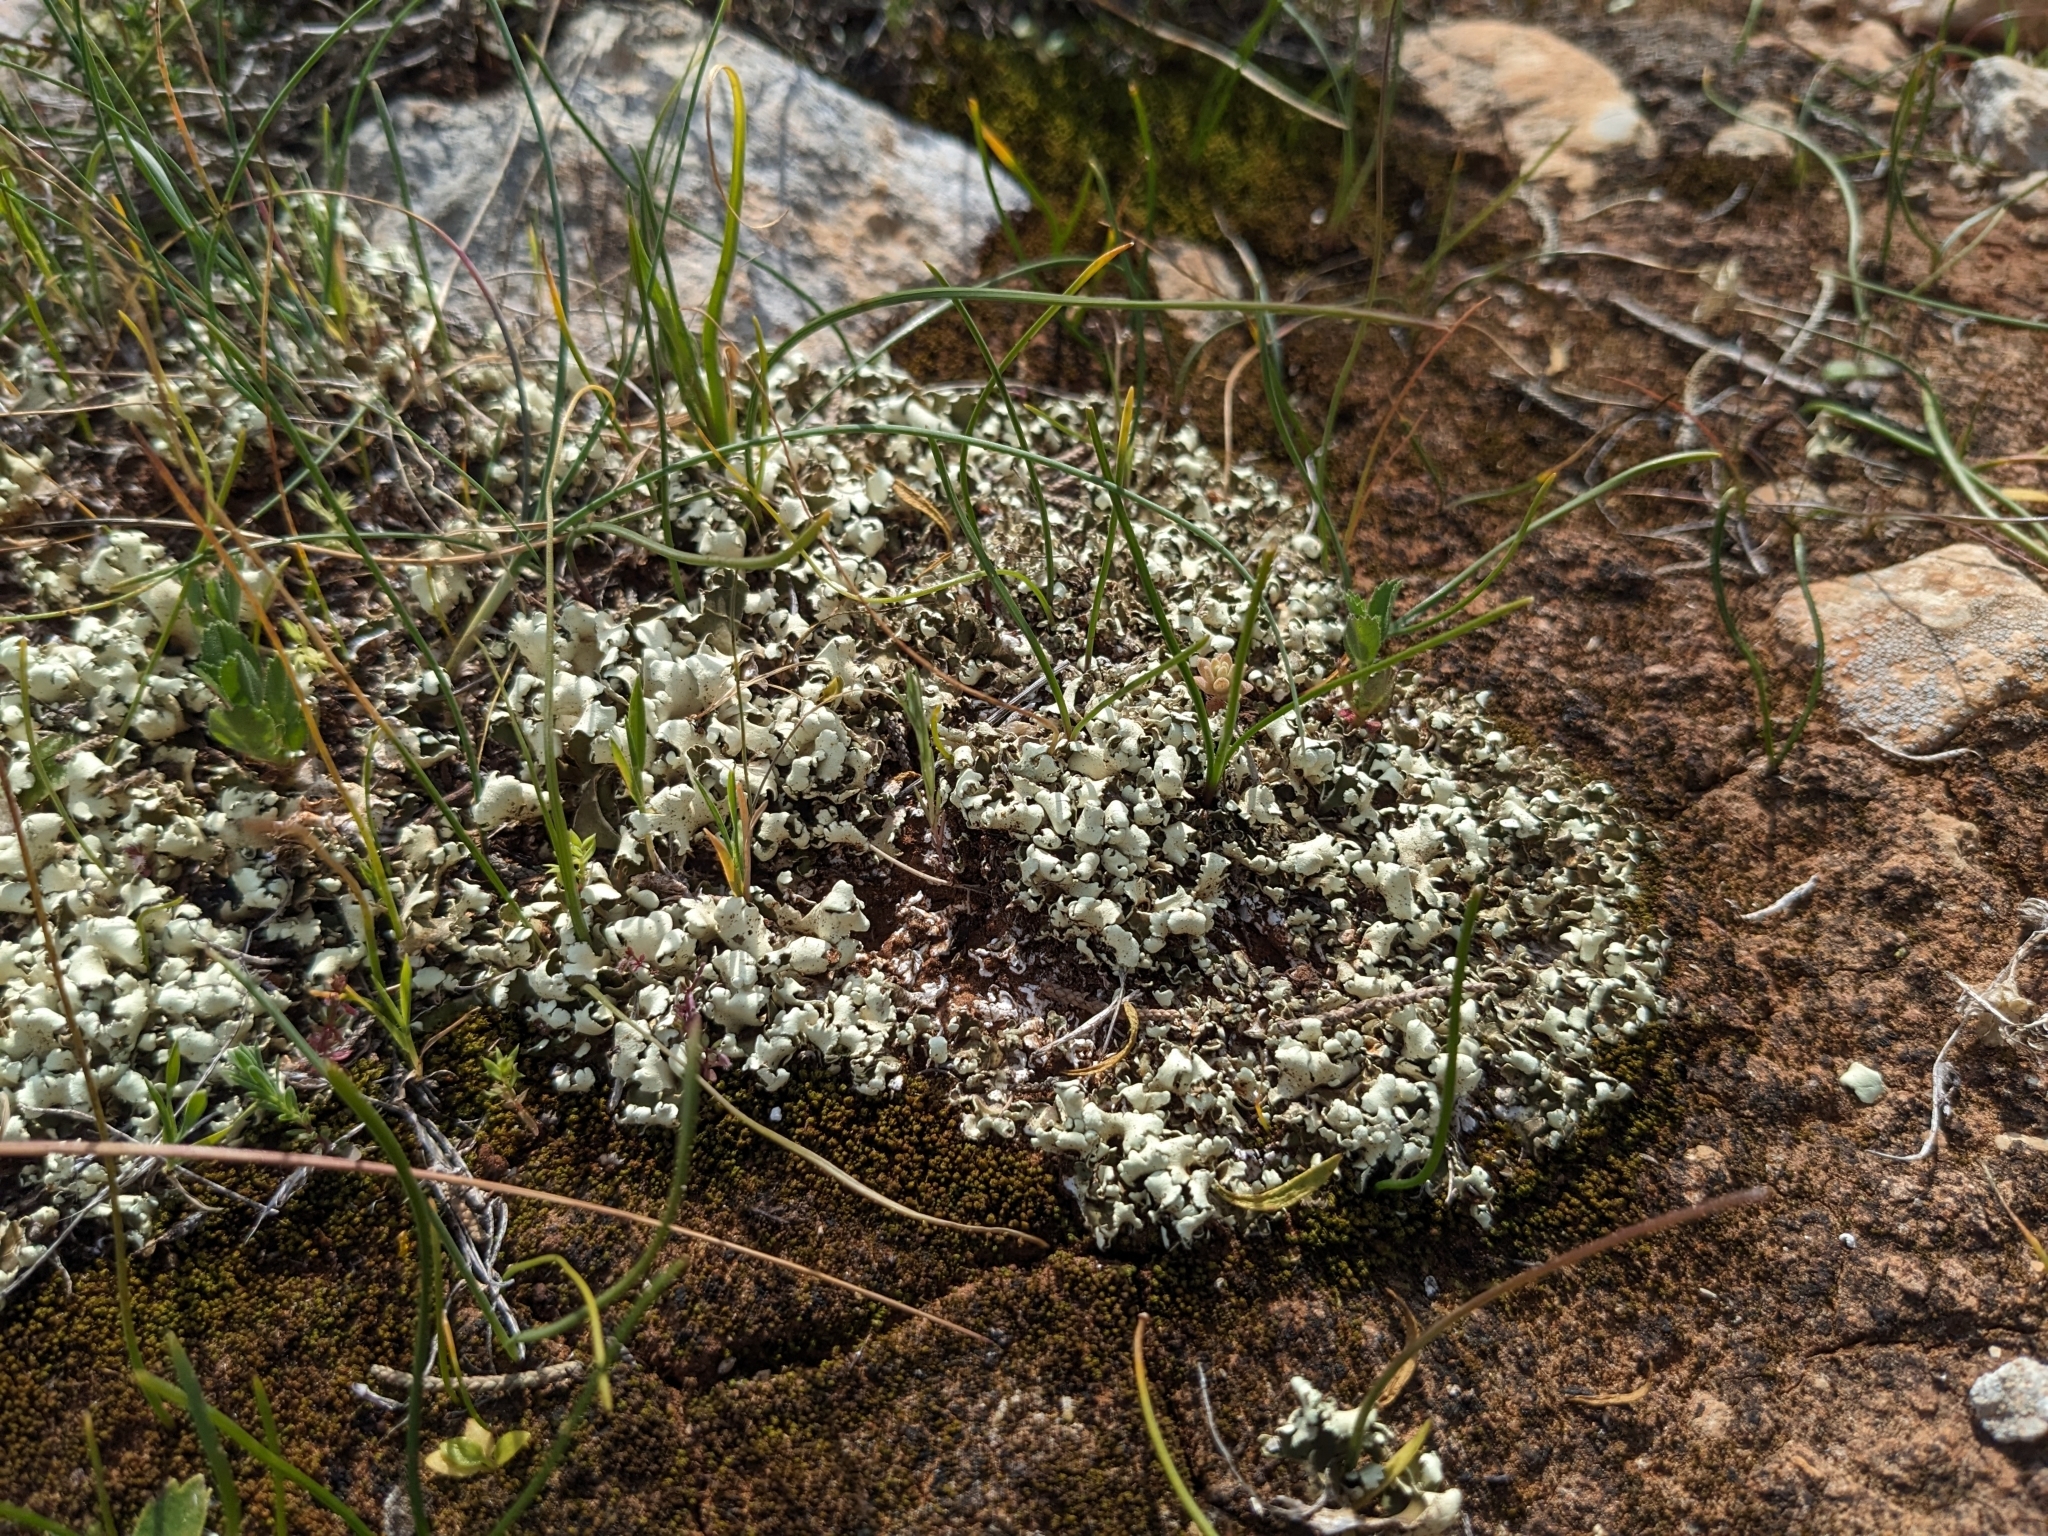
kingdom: Fungi
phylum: Ascomycota
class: Lecanoromycetes
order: Lecanorales
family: Cladoniaceae
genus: Cladonia
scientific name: Cladonia foliacea
